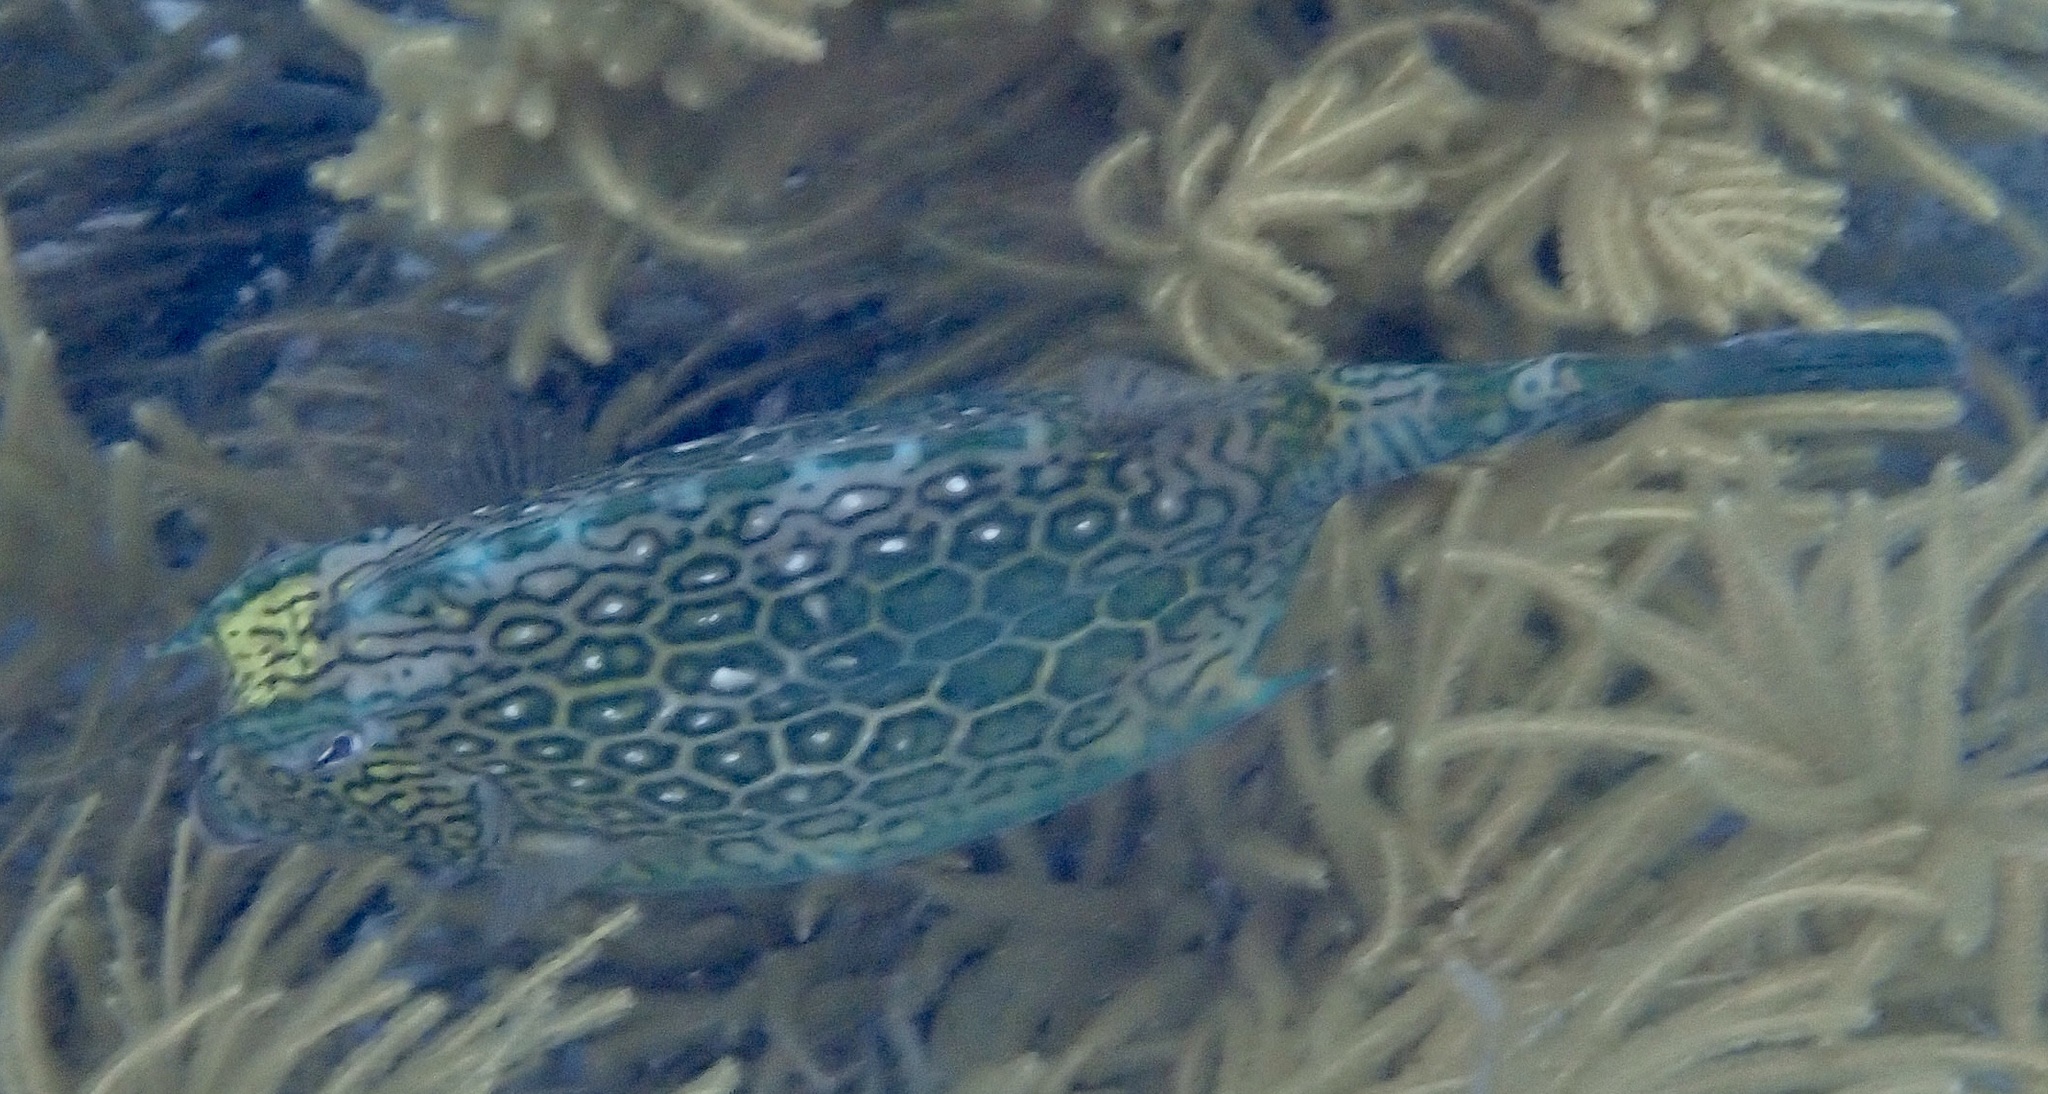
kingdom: Animalia
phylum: Chordata
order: Tetraodontiformes
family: Ostraciidae
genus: Acanthostracion
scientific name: Acanthostracion polygonius
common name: Honeycomb cowfish
